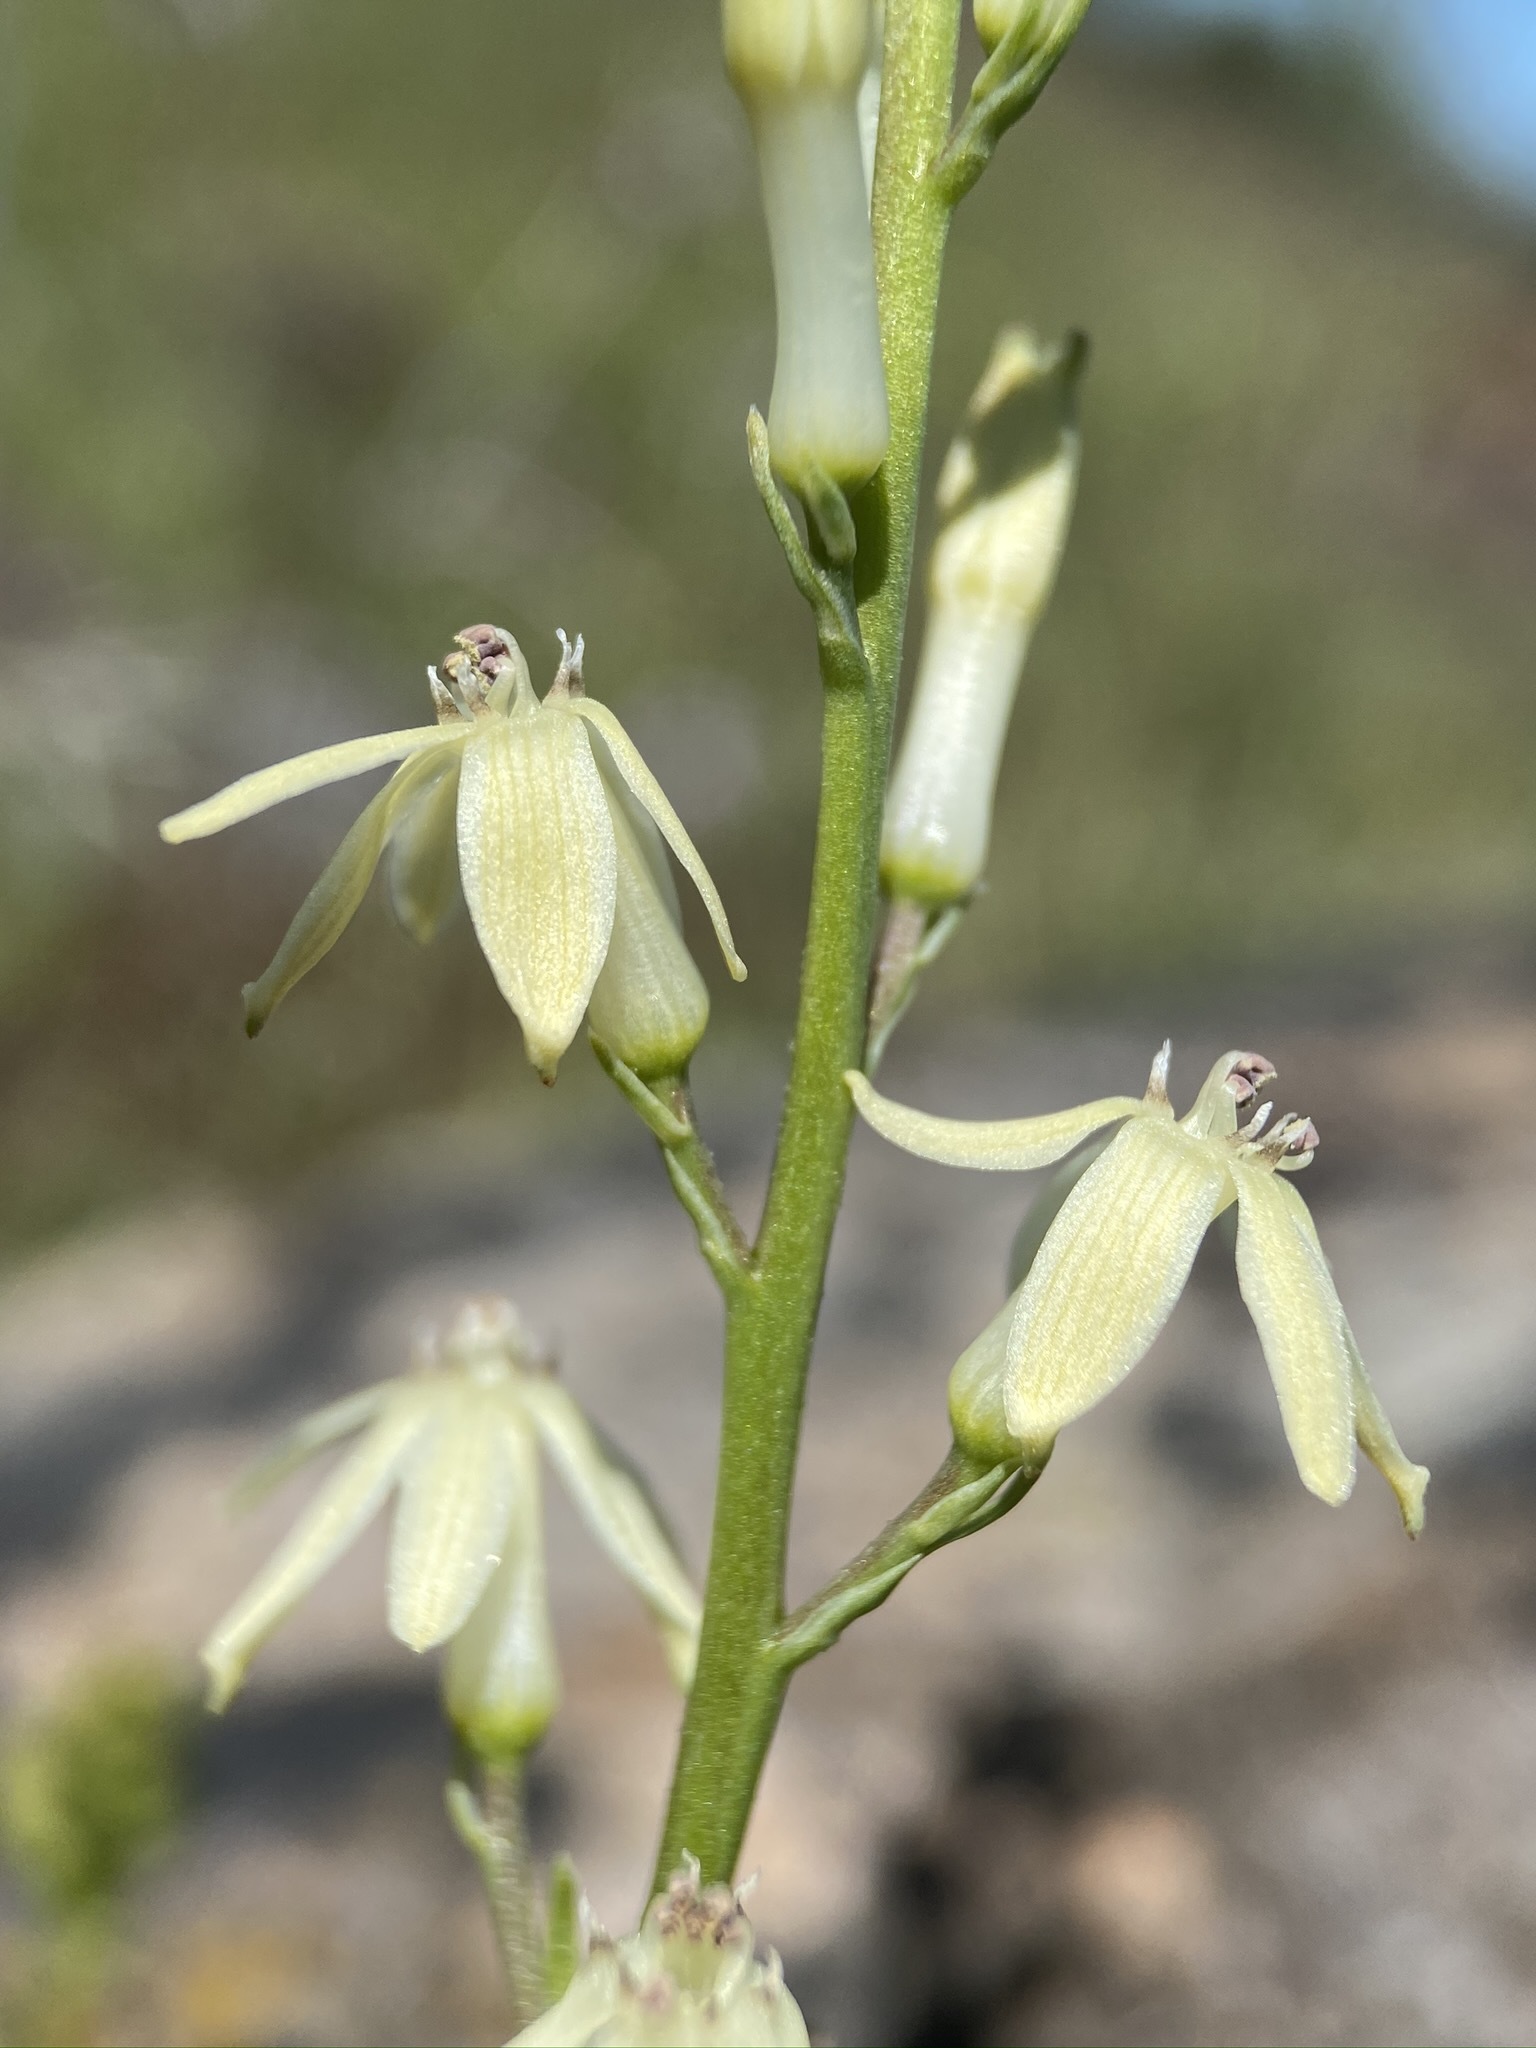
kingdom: Plantae
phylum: Tracheophyta
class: Liliopsida
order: Asparagales
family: Tecophilaeaceae
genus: Odontostomum
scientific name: Odontostomum hartwegii
